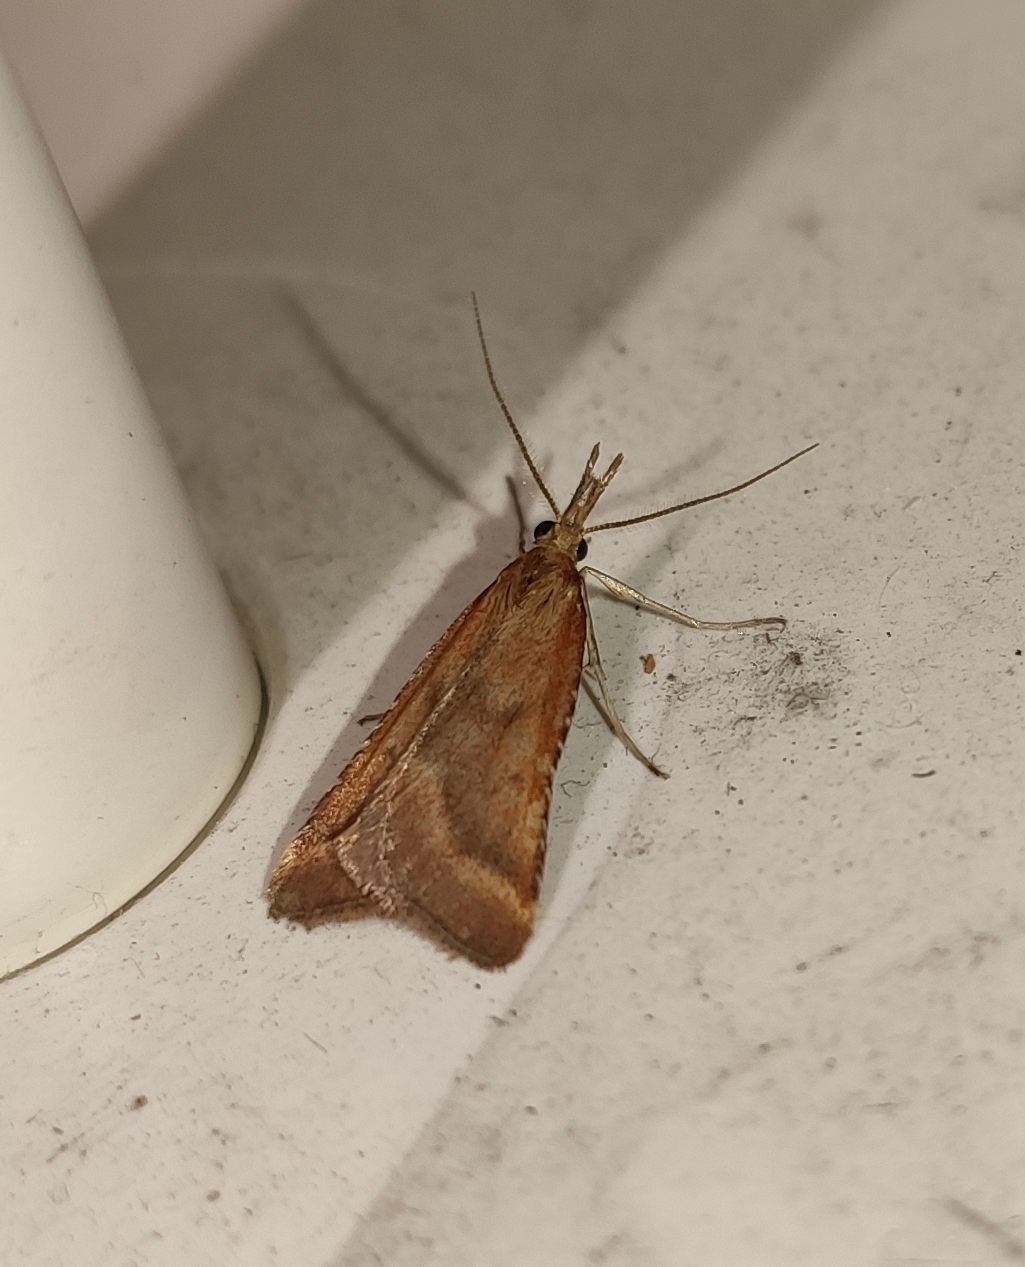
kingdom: Animalia
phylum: Arthropoda
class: Insecta
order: Lepidoptera
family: Pyralidae
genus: Synaphe
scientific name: Synaphe punctalis
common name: Long-legged tabby
